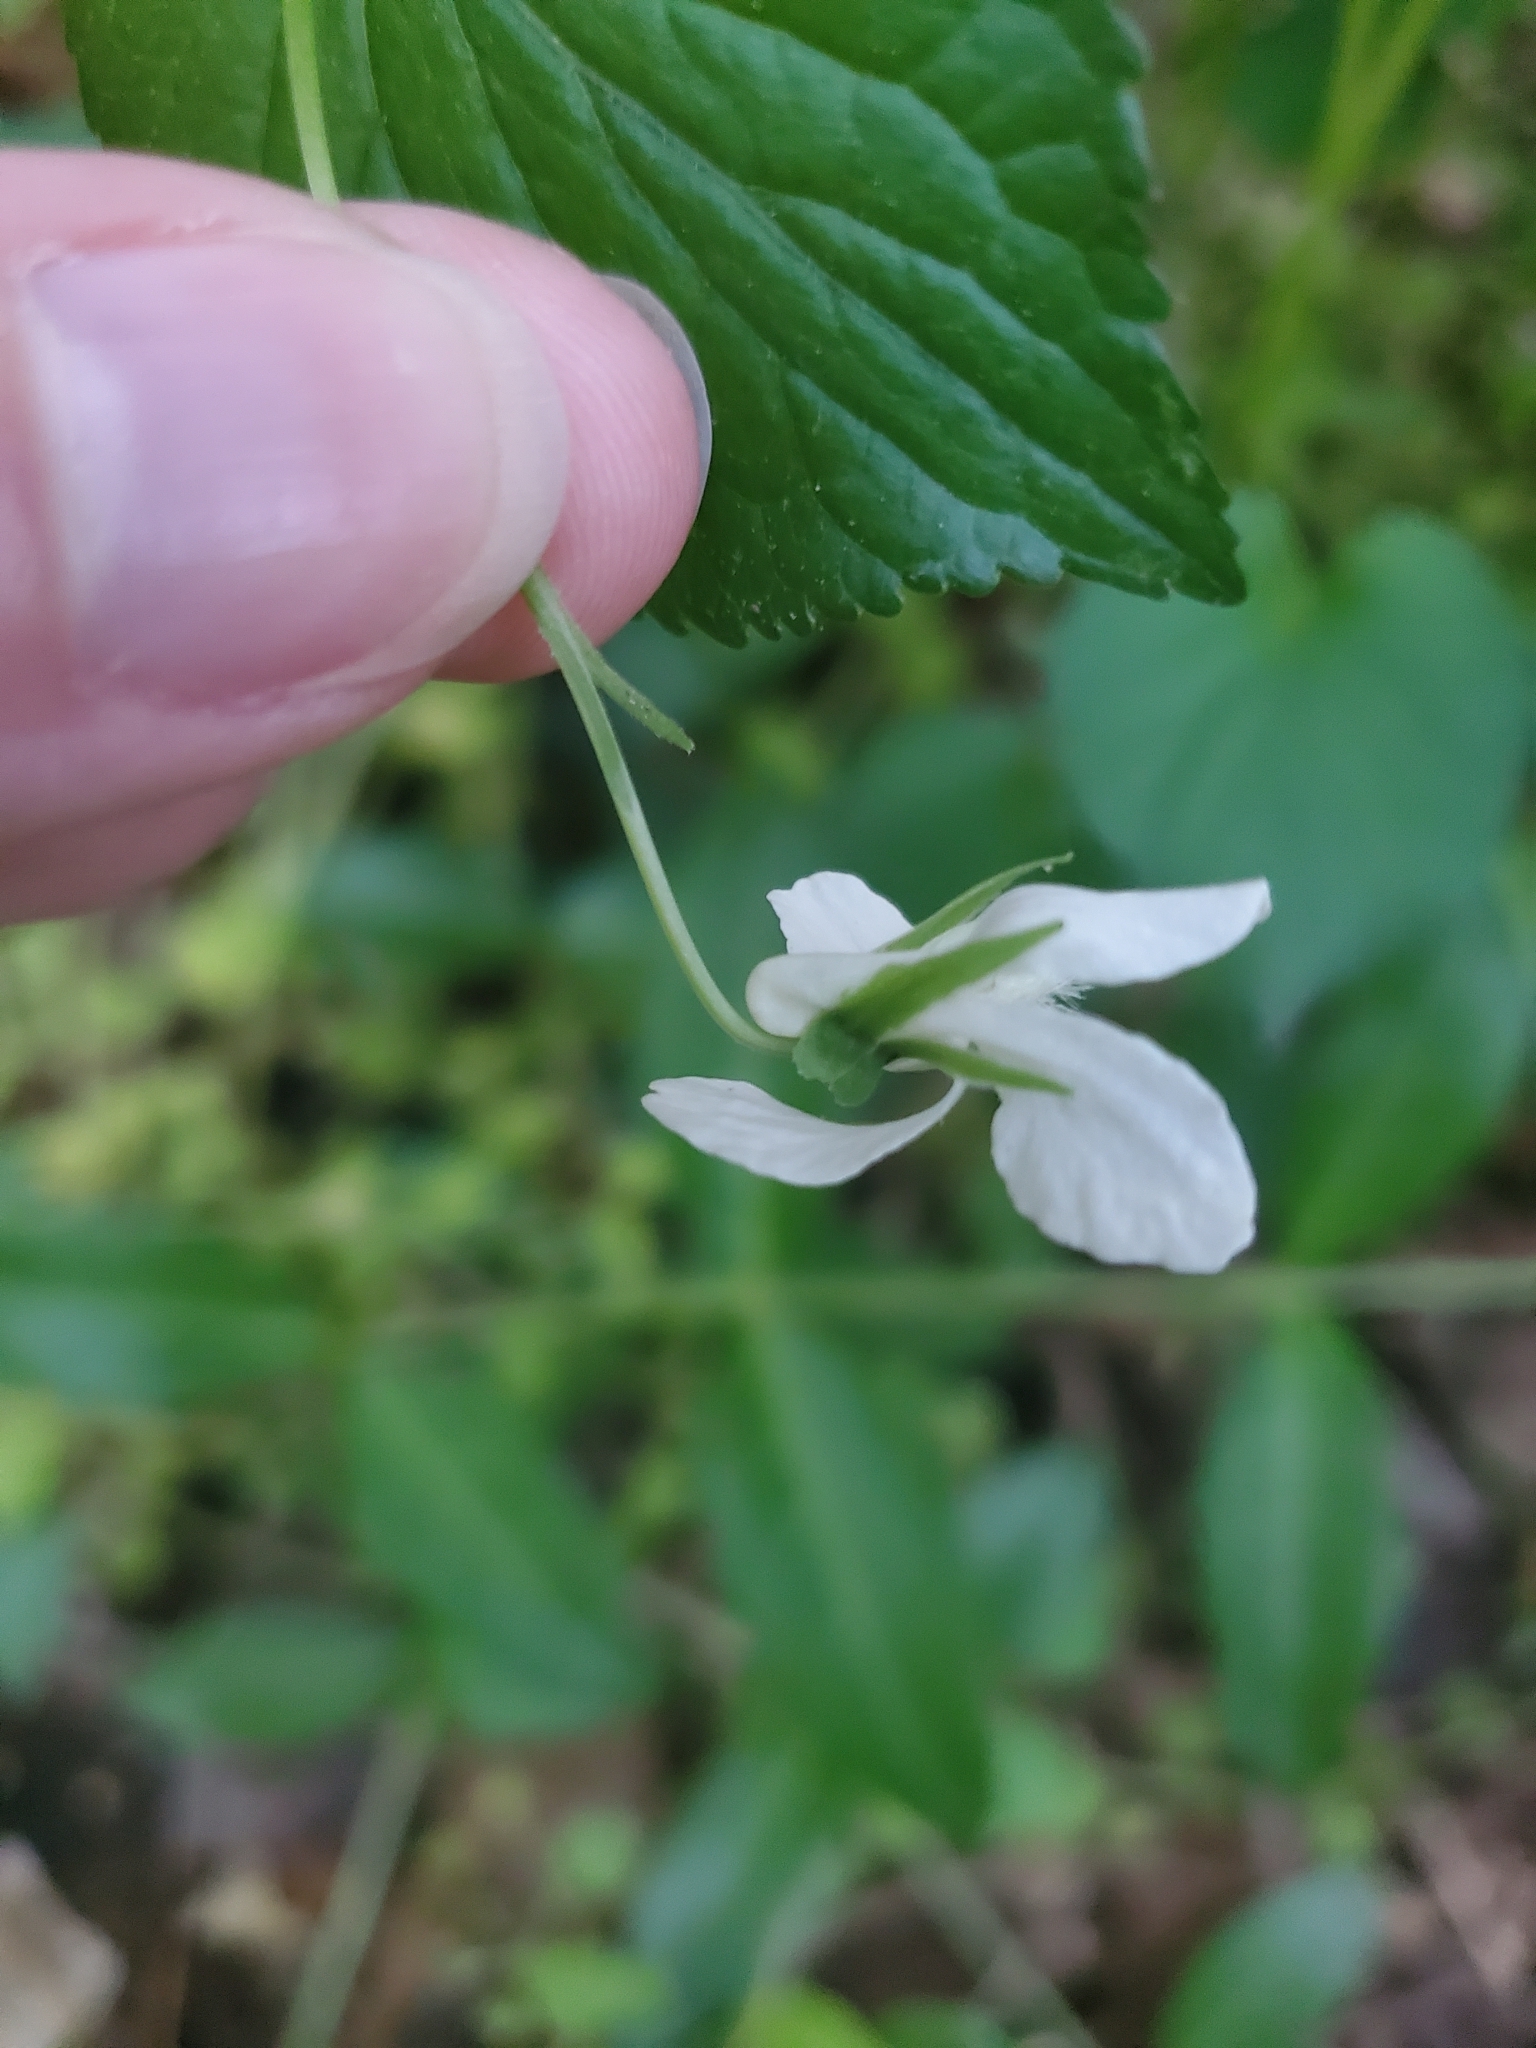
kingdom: Plantae
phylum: Tracheophyta
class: Magnoliopsida
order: Malpighiales
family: Violaceae
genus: Viola
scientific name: Viola striata
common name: Cream violet
